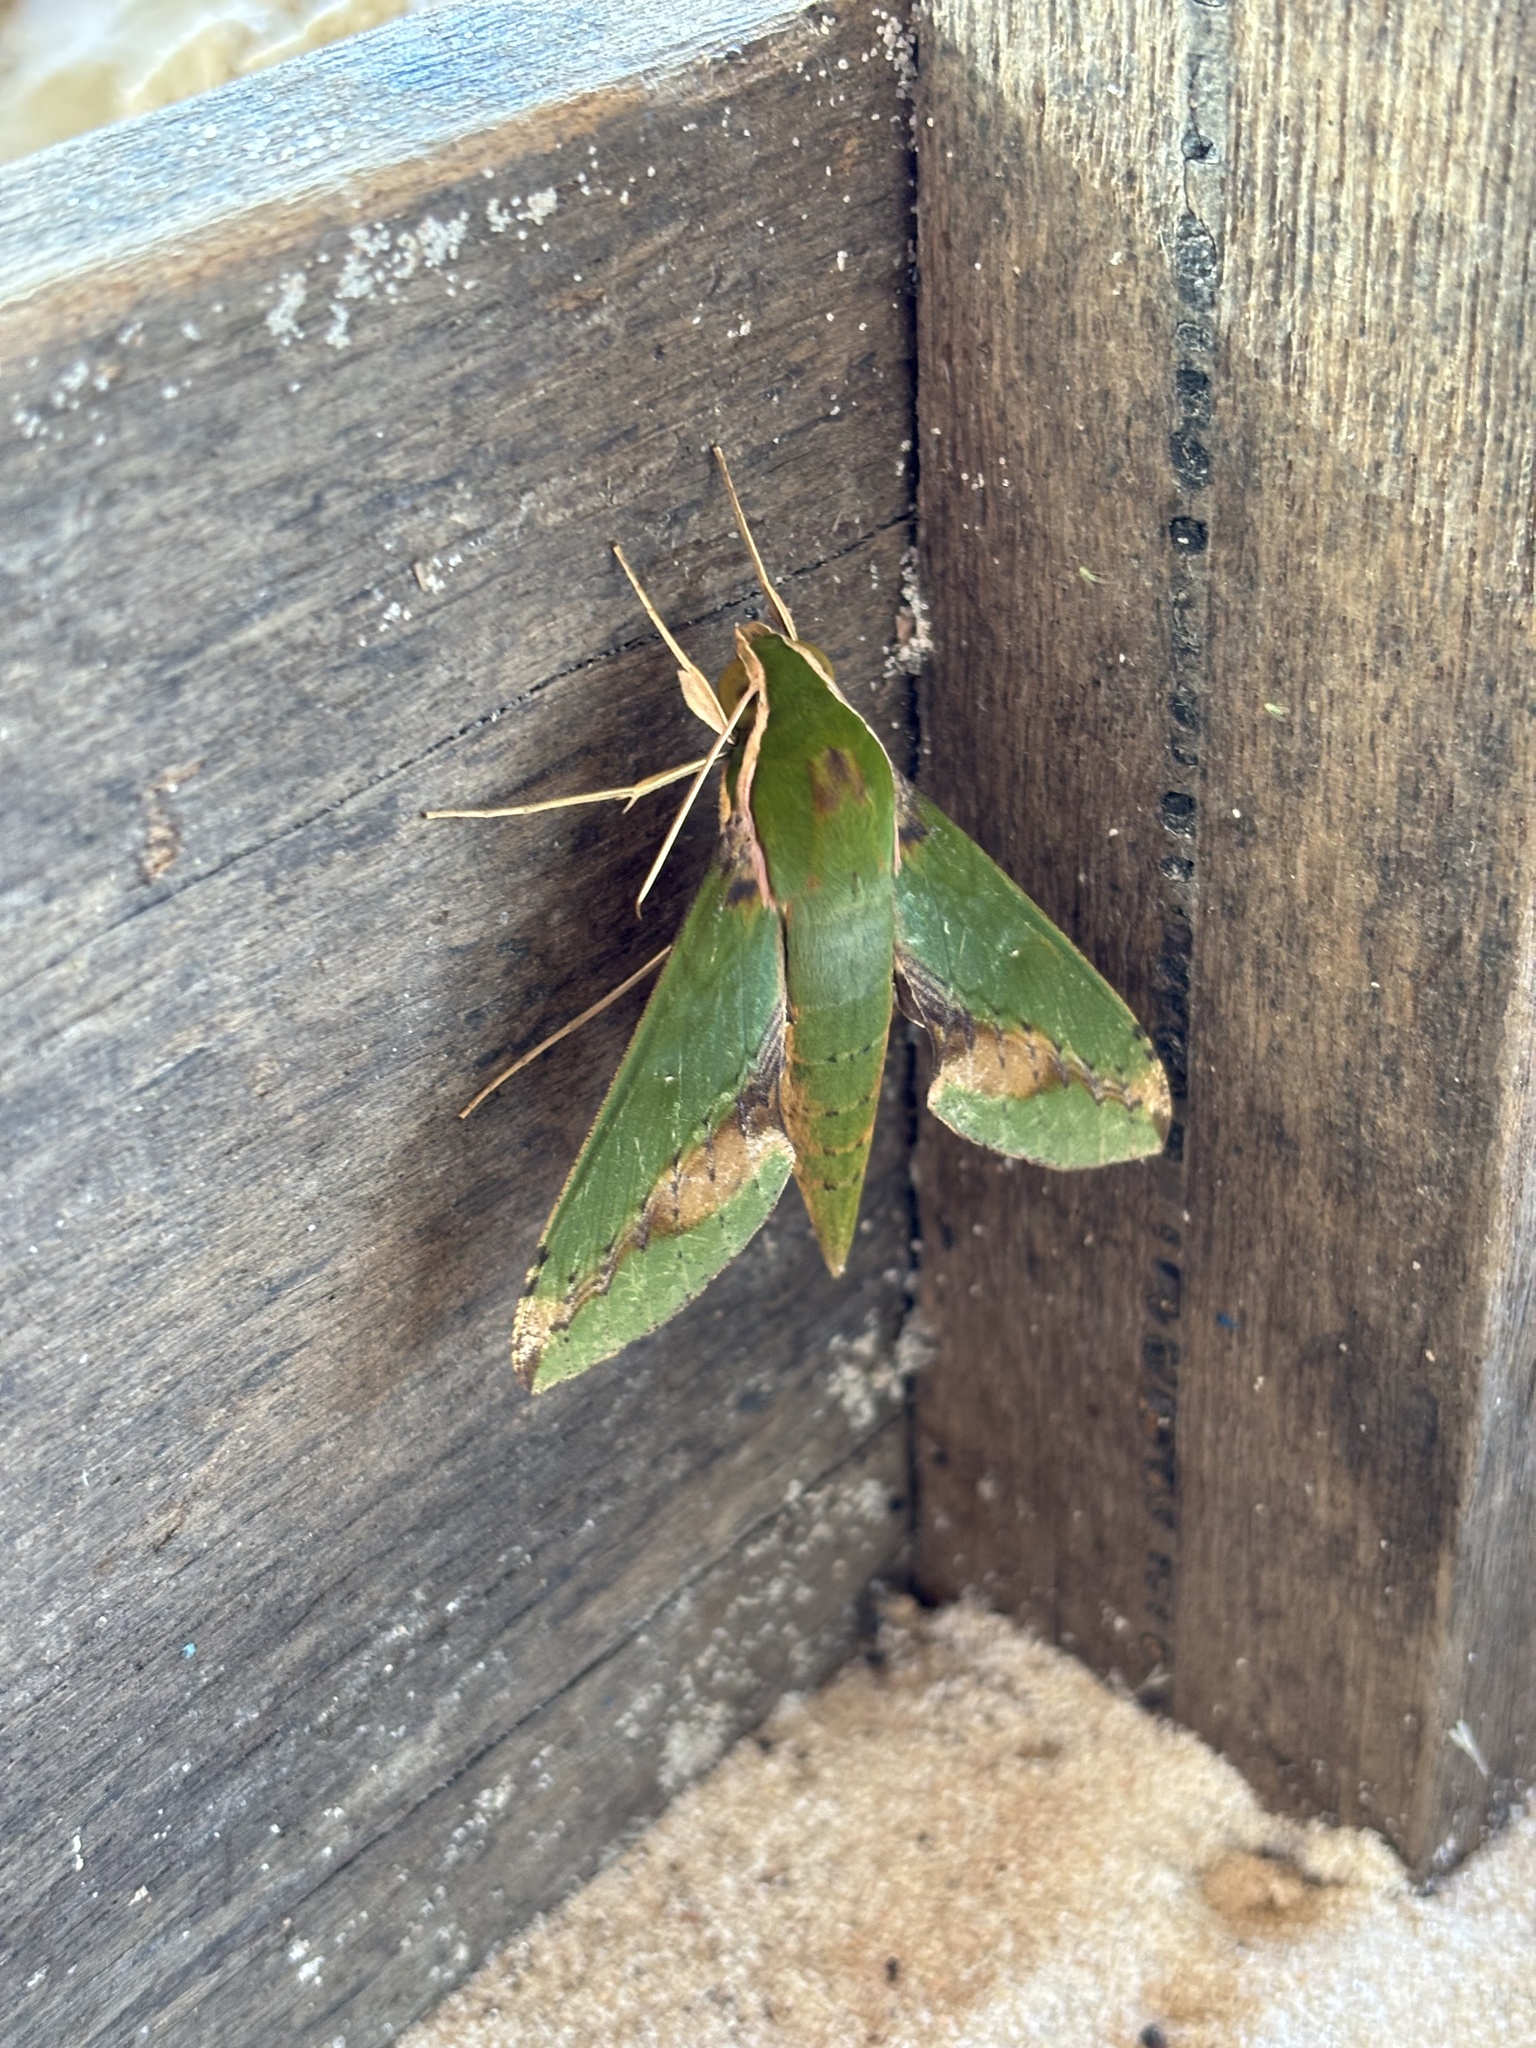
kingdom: Animalia
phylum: Arthropoda
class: Insecta
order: Lepidoptera
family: Sphingidae
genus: Xylophanes
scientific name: Xylophanes chiron
